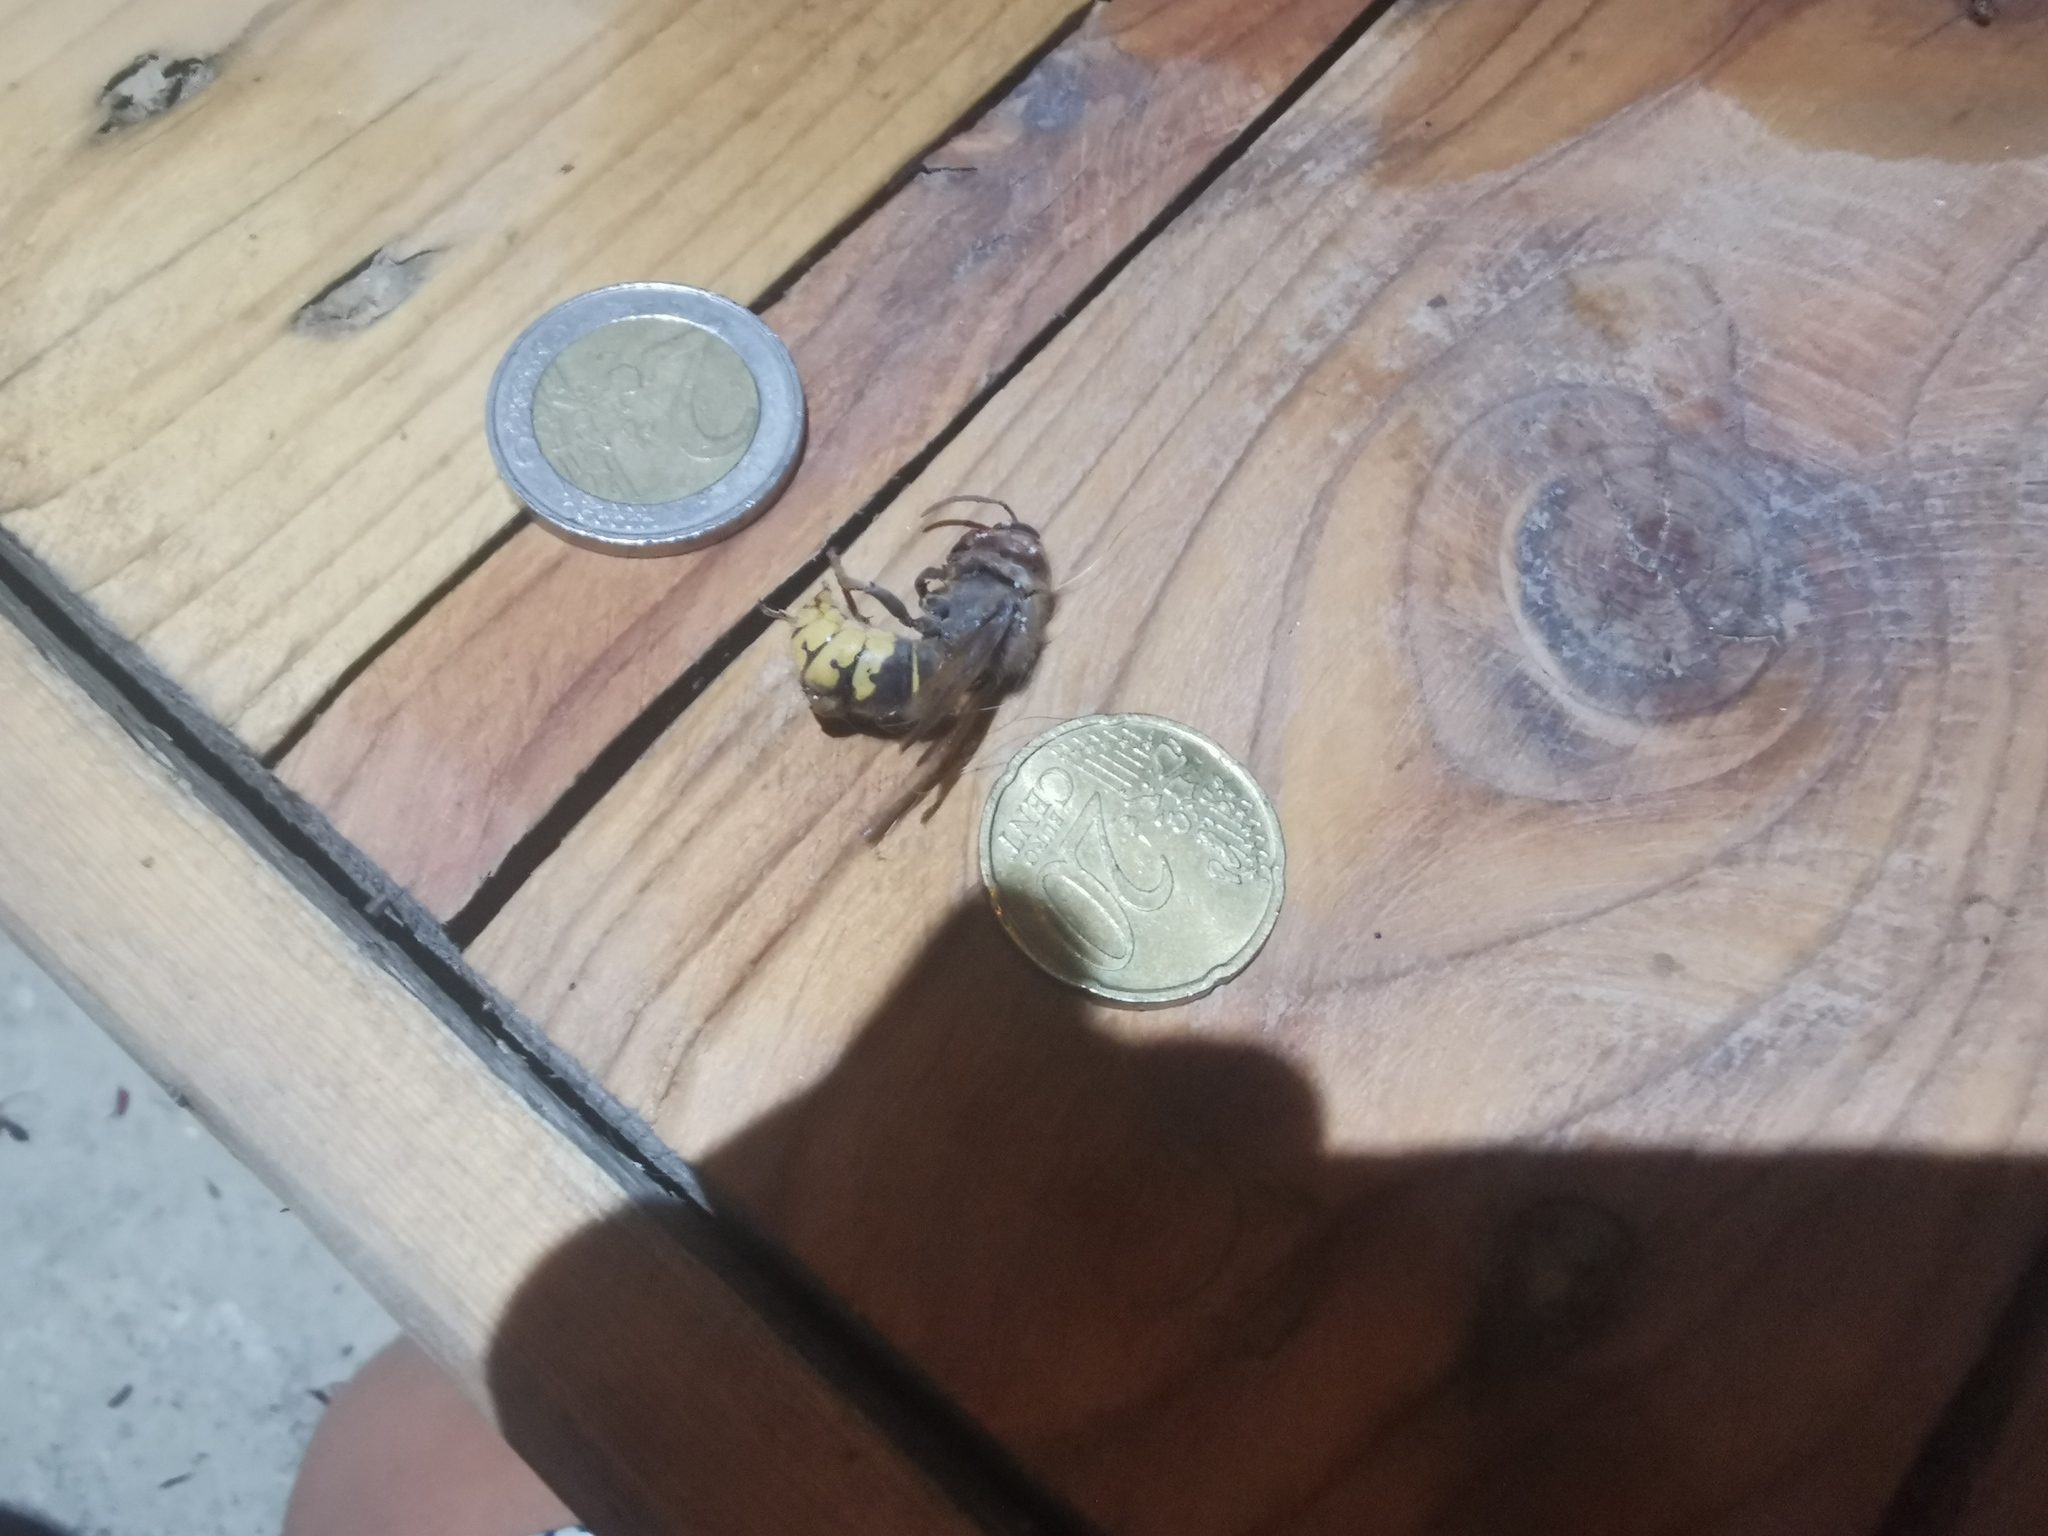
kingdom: Animalia
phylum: Arthropoda
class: Insecta
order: Hymenoptera
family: Vespidae
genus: Vespa
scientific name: Vespa crabro
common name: Hornet
